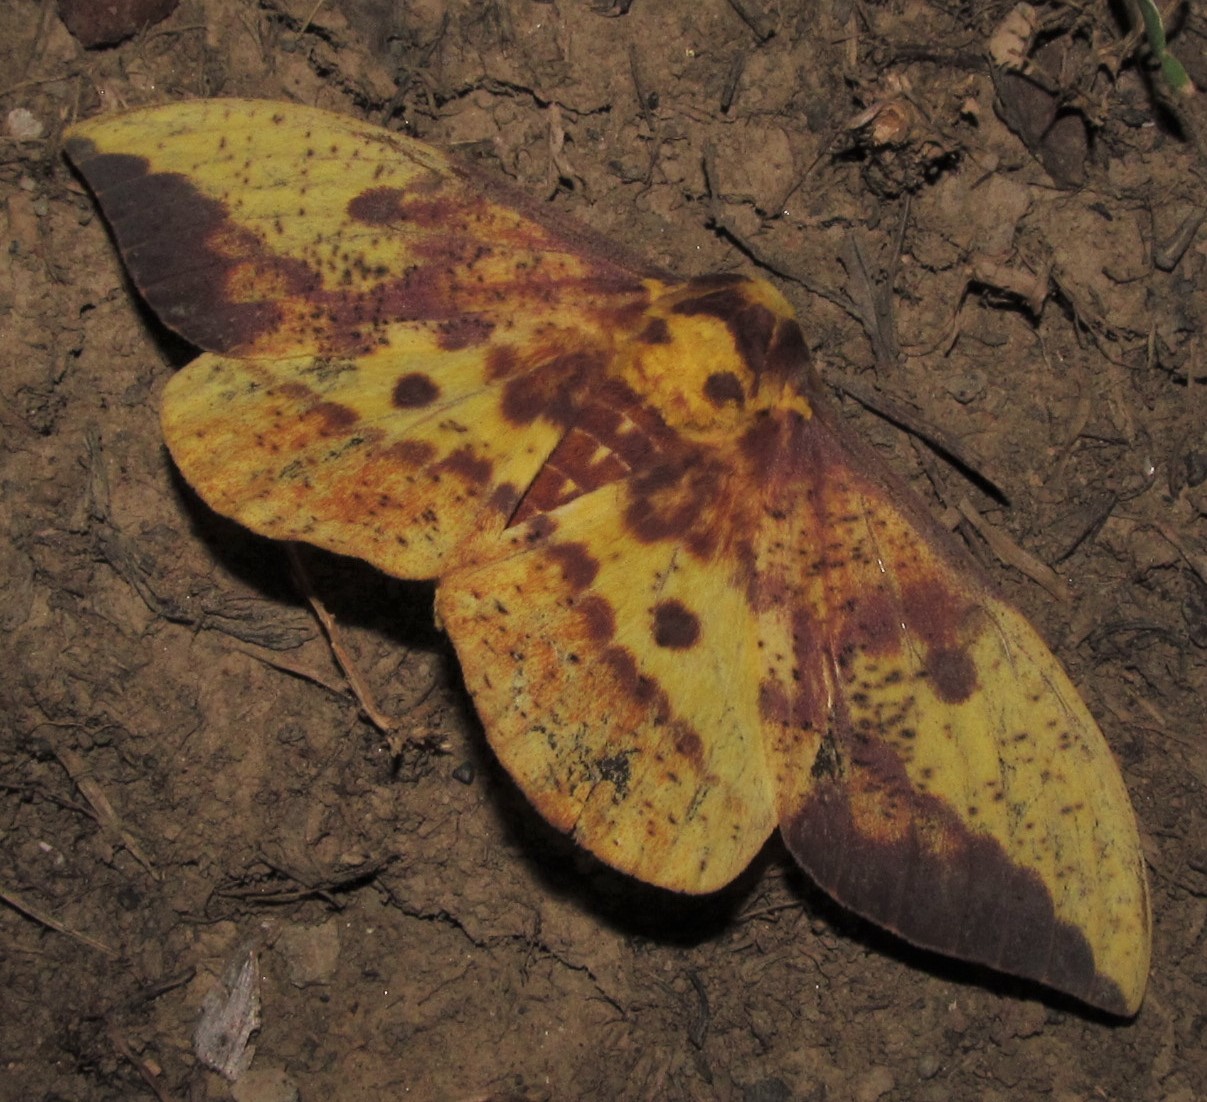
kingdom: Animalia
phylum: Arthropoda
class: Insecta
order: Lepidoptera
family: Saturniidae
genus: Eacles
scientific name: Eacles imperialis
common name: Imperial moth
